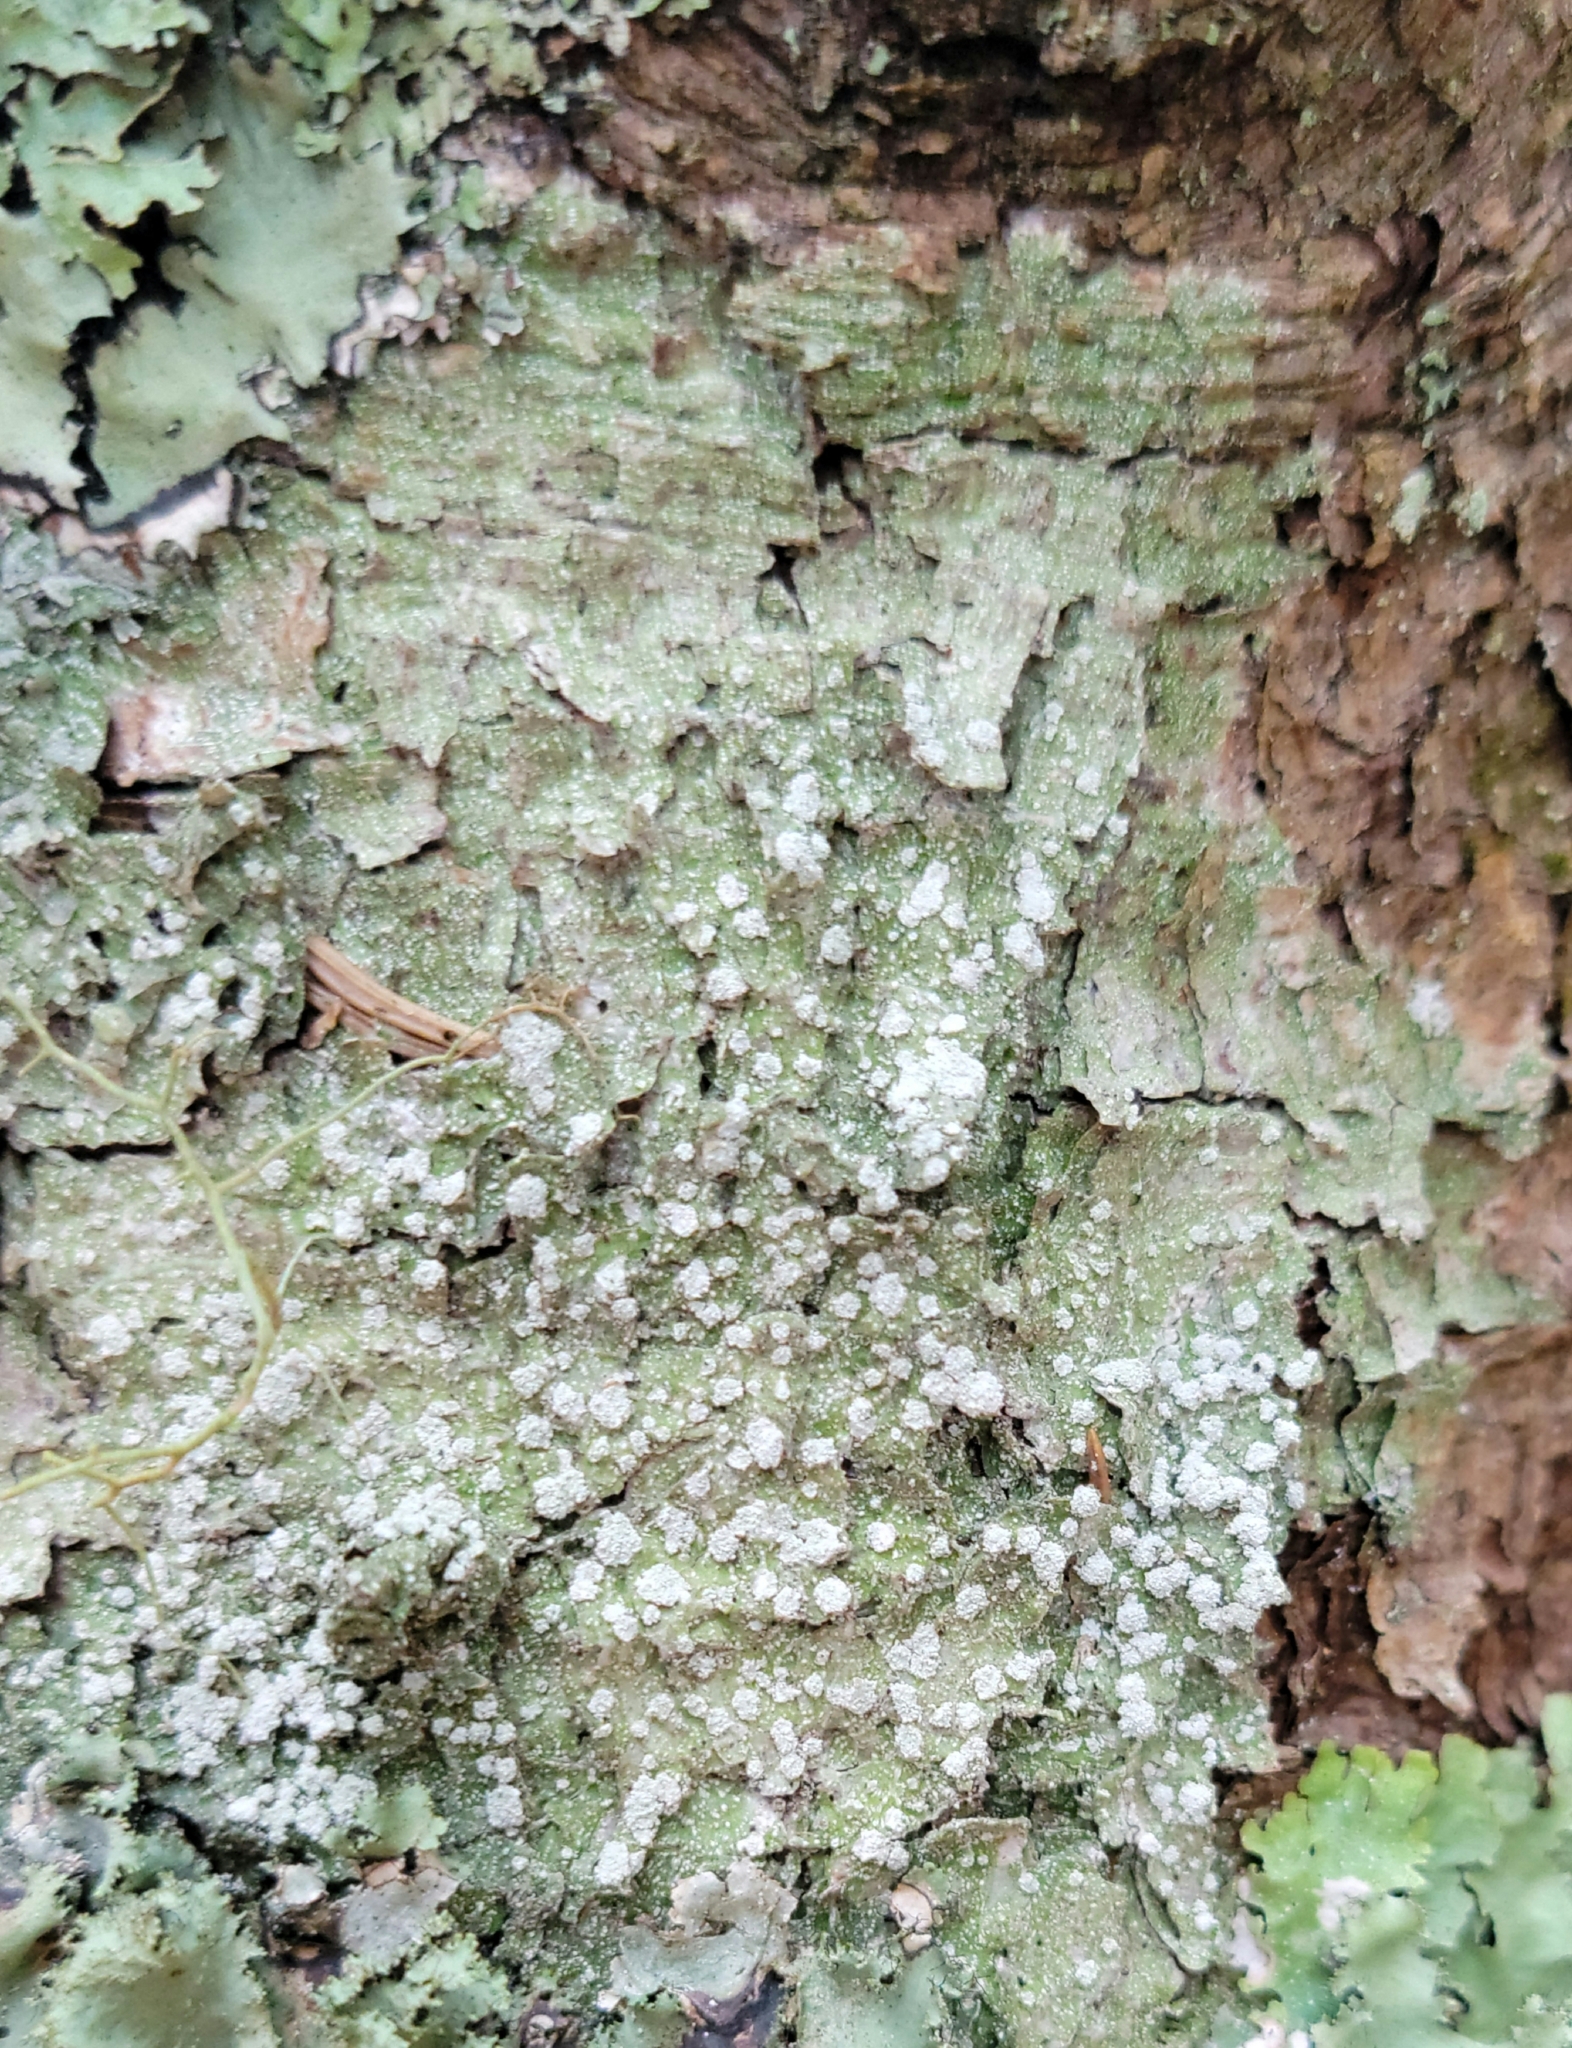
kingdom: Fungi
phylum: Ascomycota
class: Lecanoromycetes
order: Pertusariales
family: Pertusariaceae
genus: Lepra
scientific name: Lepra amara
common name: Bitter wart lichen
